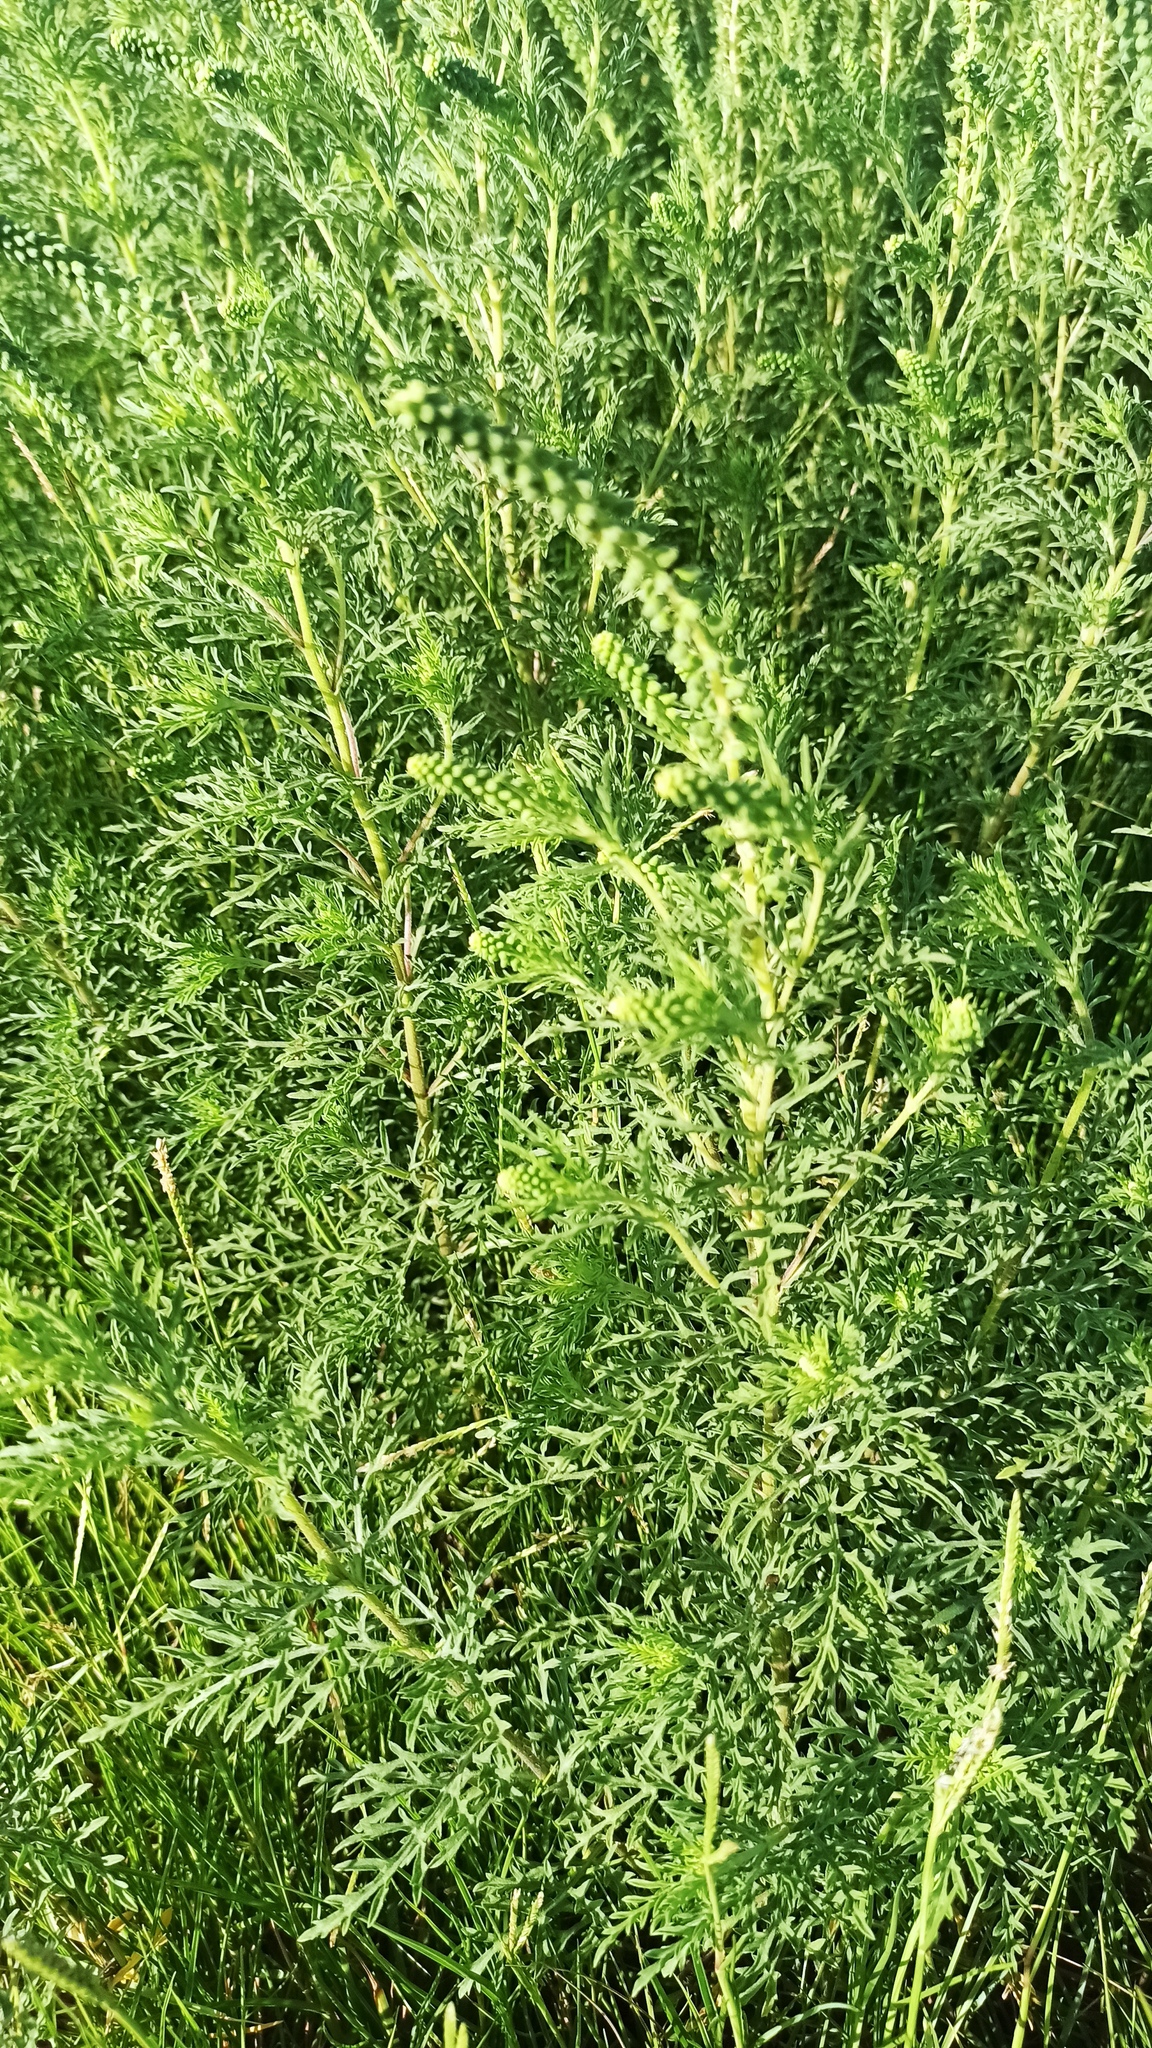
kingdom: Plantae
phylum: Tracheophyta
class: Magnoliopsida
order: Asterales
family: Asteraceae
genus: Ambrosia
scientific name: Ambrosia tenuifolia
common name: Lacy ambrosia
